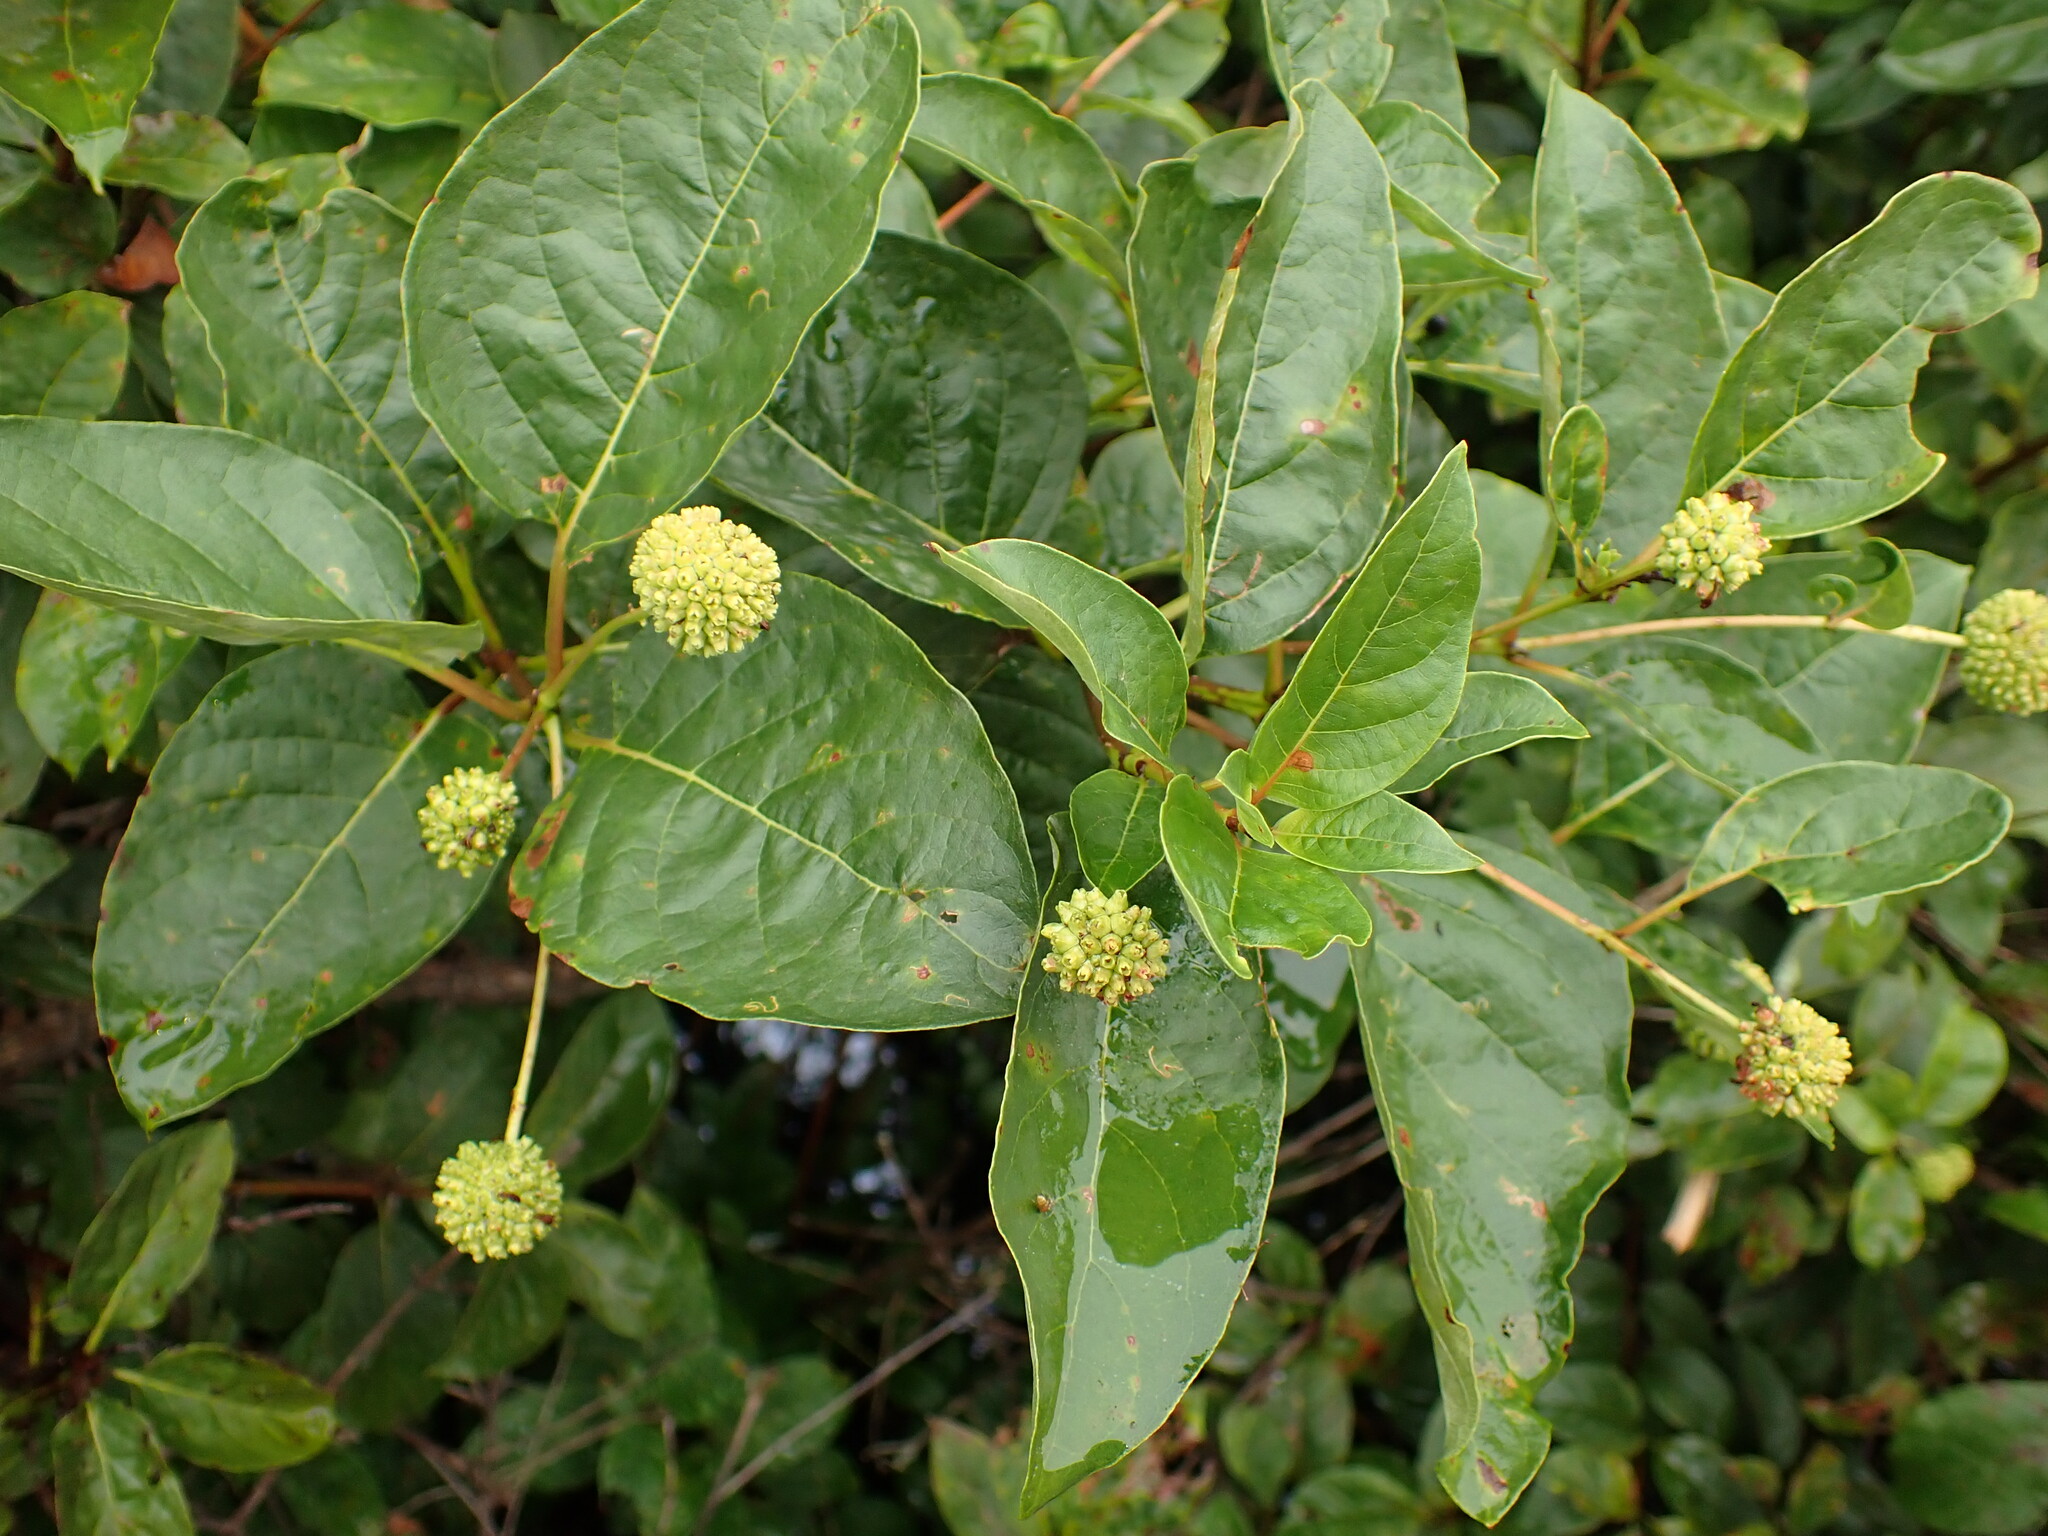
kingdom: Plantae
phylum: Tracheophyta
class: Magnoliopsida
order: Gentianales
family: Rubiaceae
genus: Cephalanthus
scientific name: Cephalanthus occidentalis
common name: Button-willow
